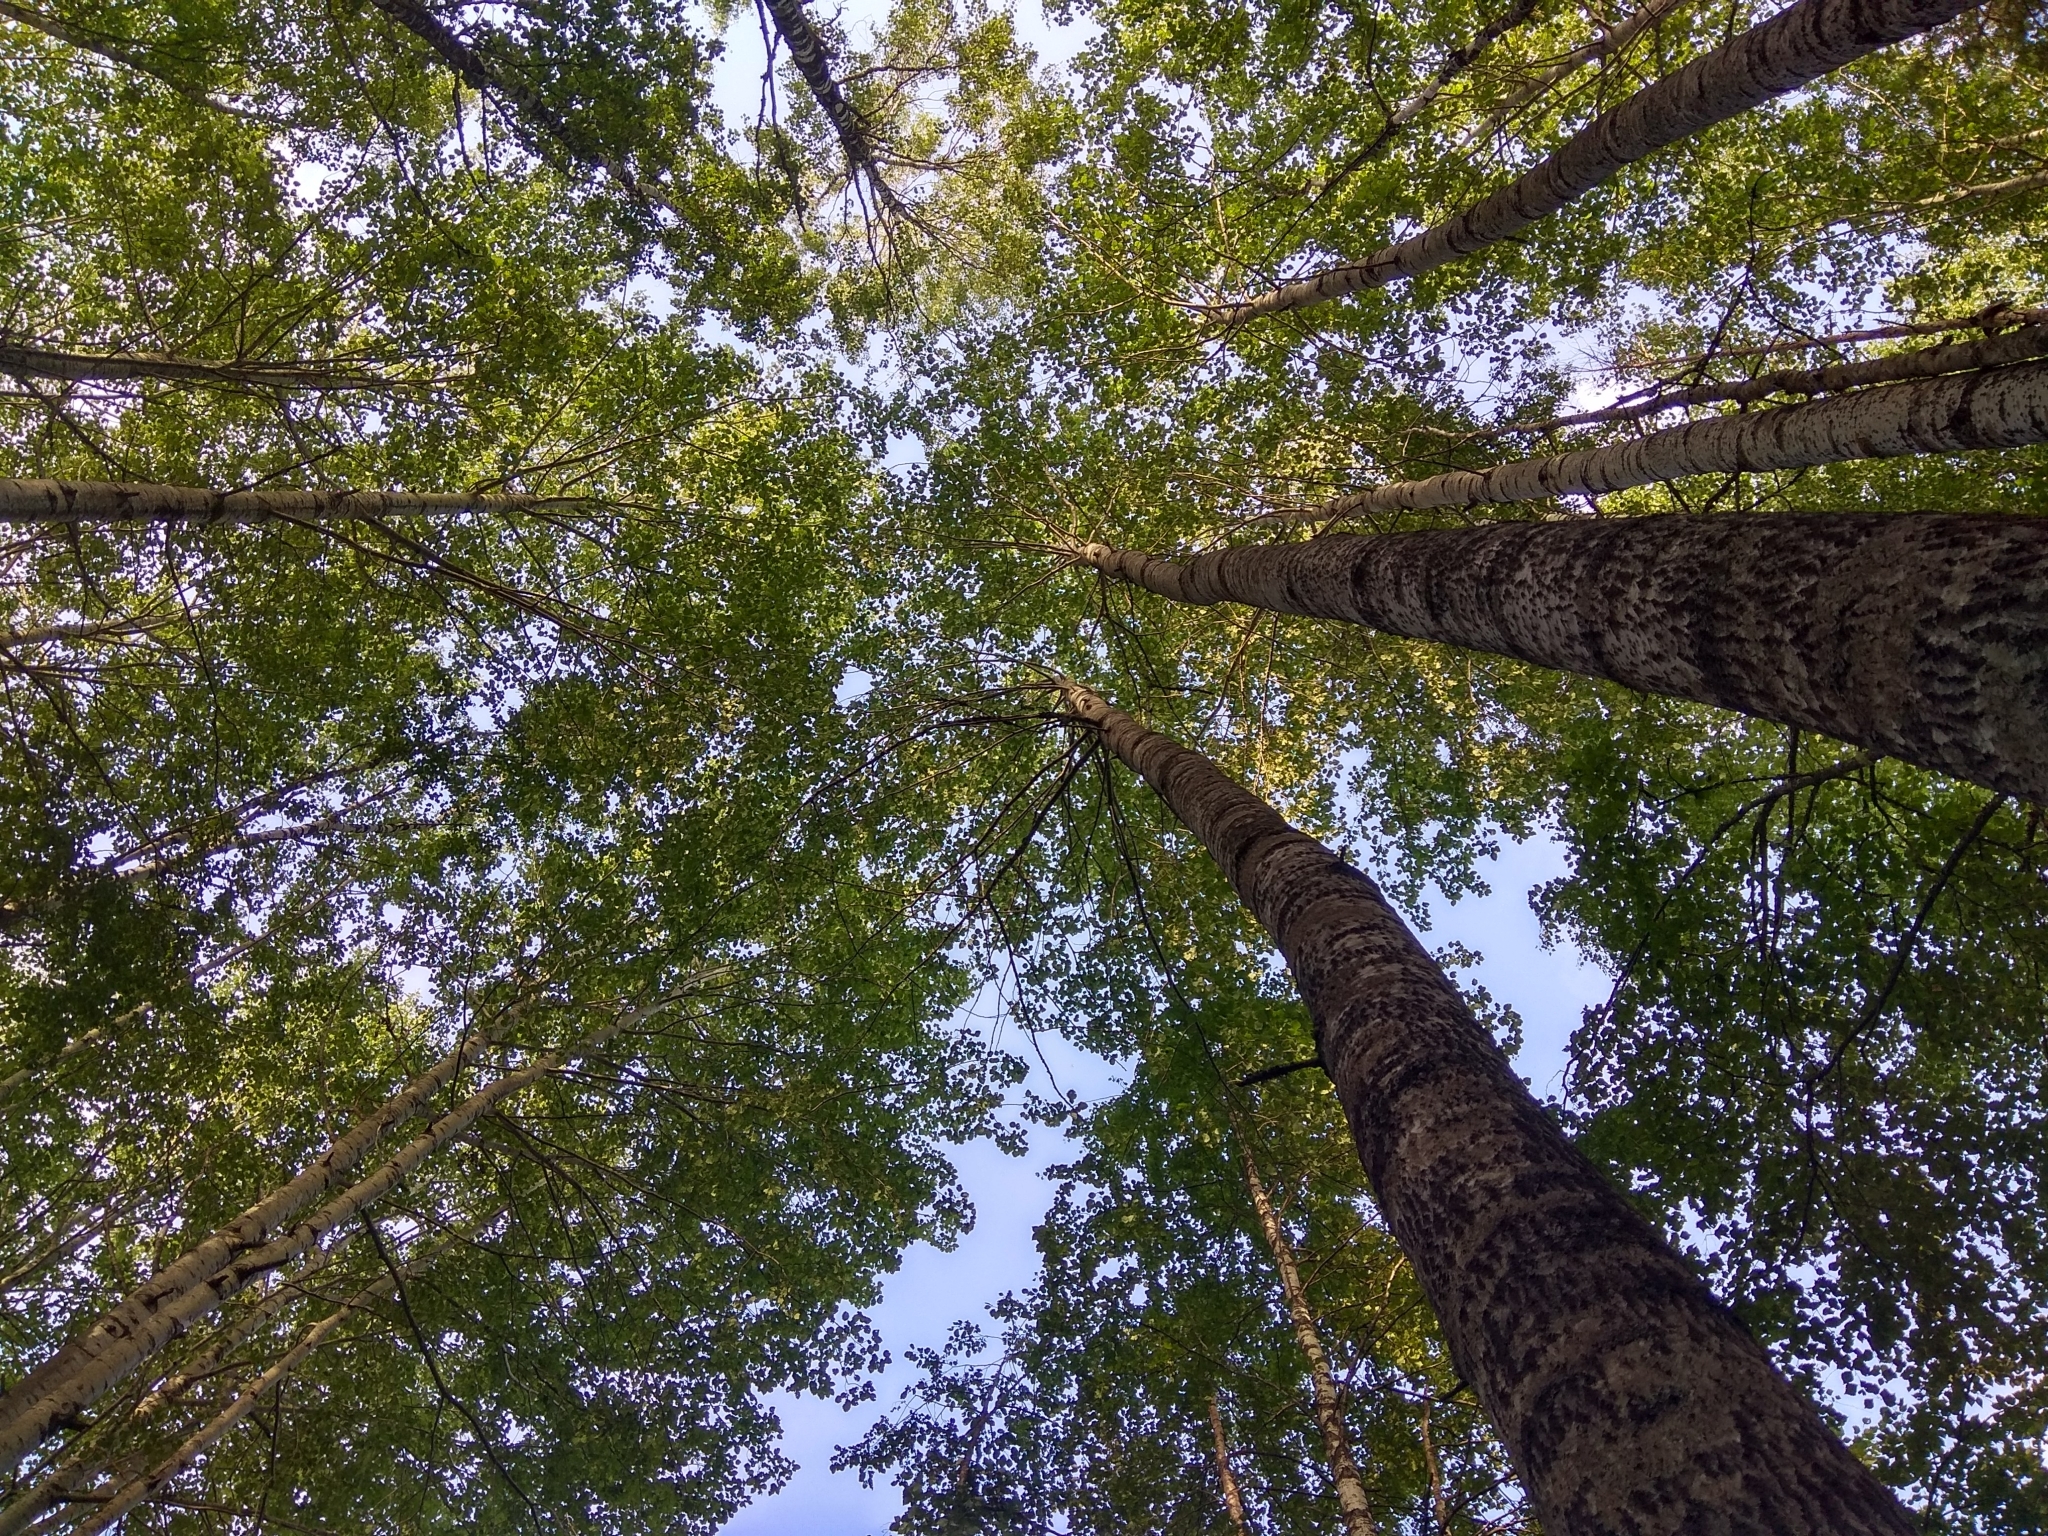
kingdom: Plantae
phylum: Tracheophyta
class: Magnoliopsida
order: Malpighiales
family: Salicaceae
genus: Populus
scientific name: Populus tremula
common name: European aspen
